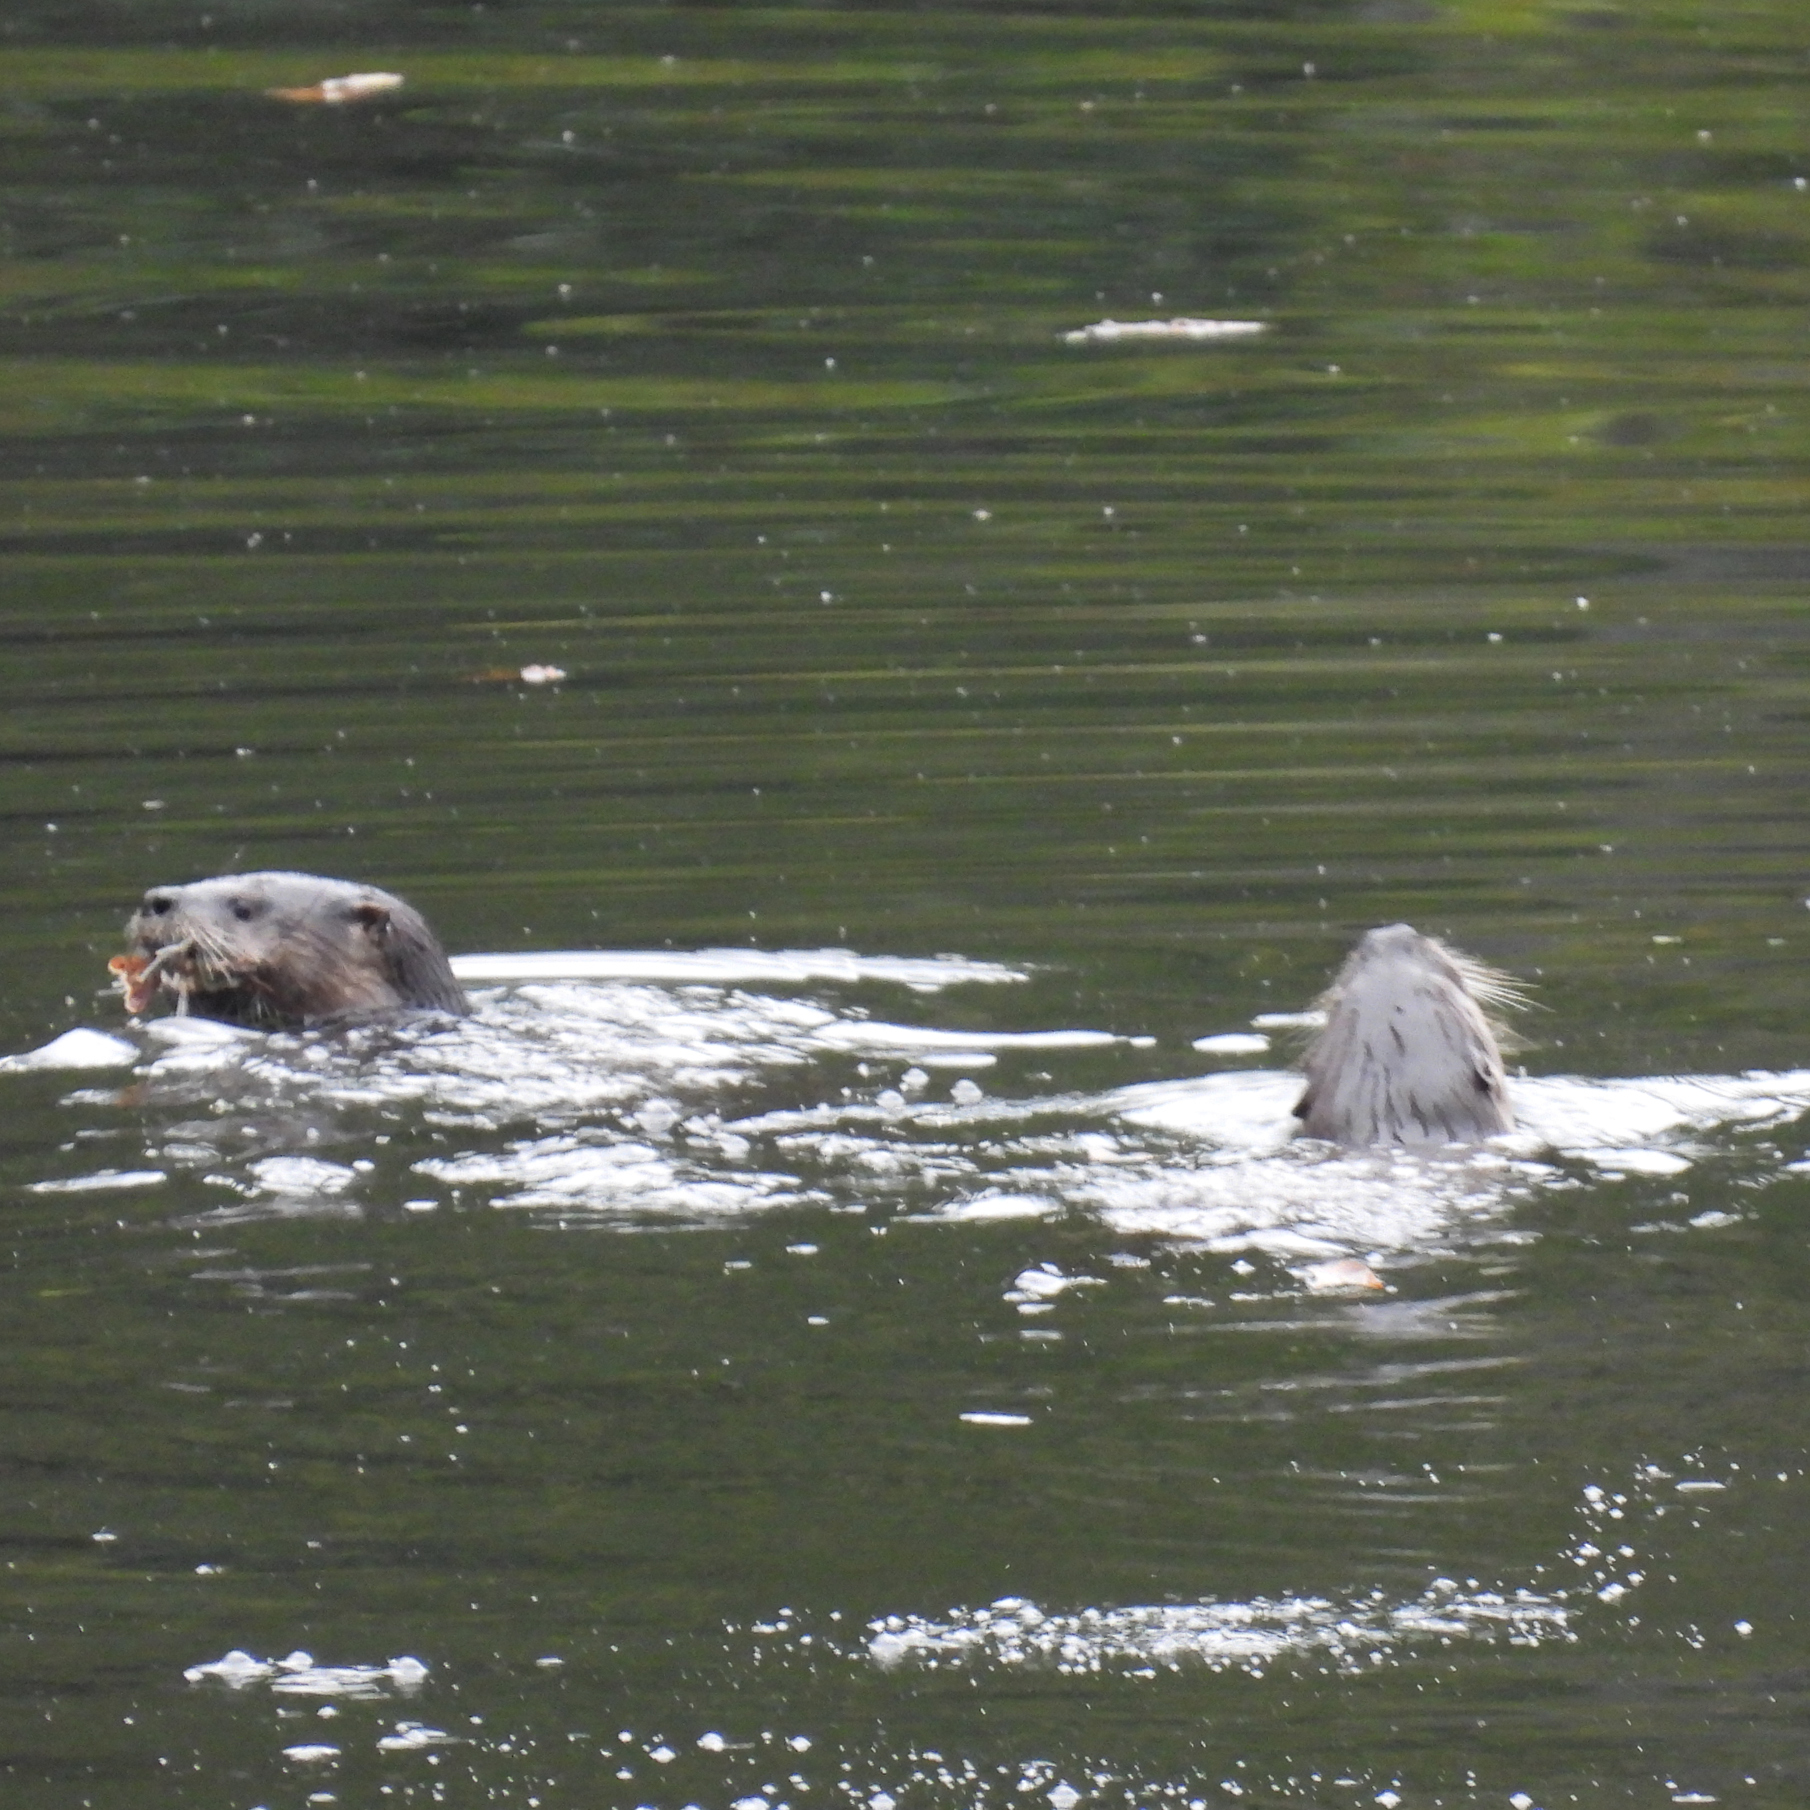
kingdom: Animalia
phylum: Chordata
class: Mammalia
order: Carnivora
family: Mustelidae
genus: Lontra
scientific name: Lontra canadensis
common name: North american river otter
